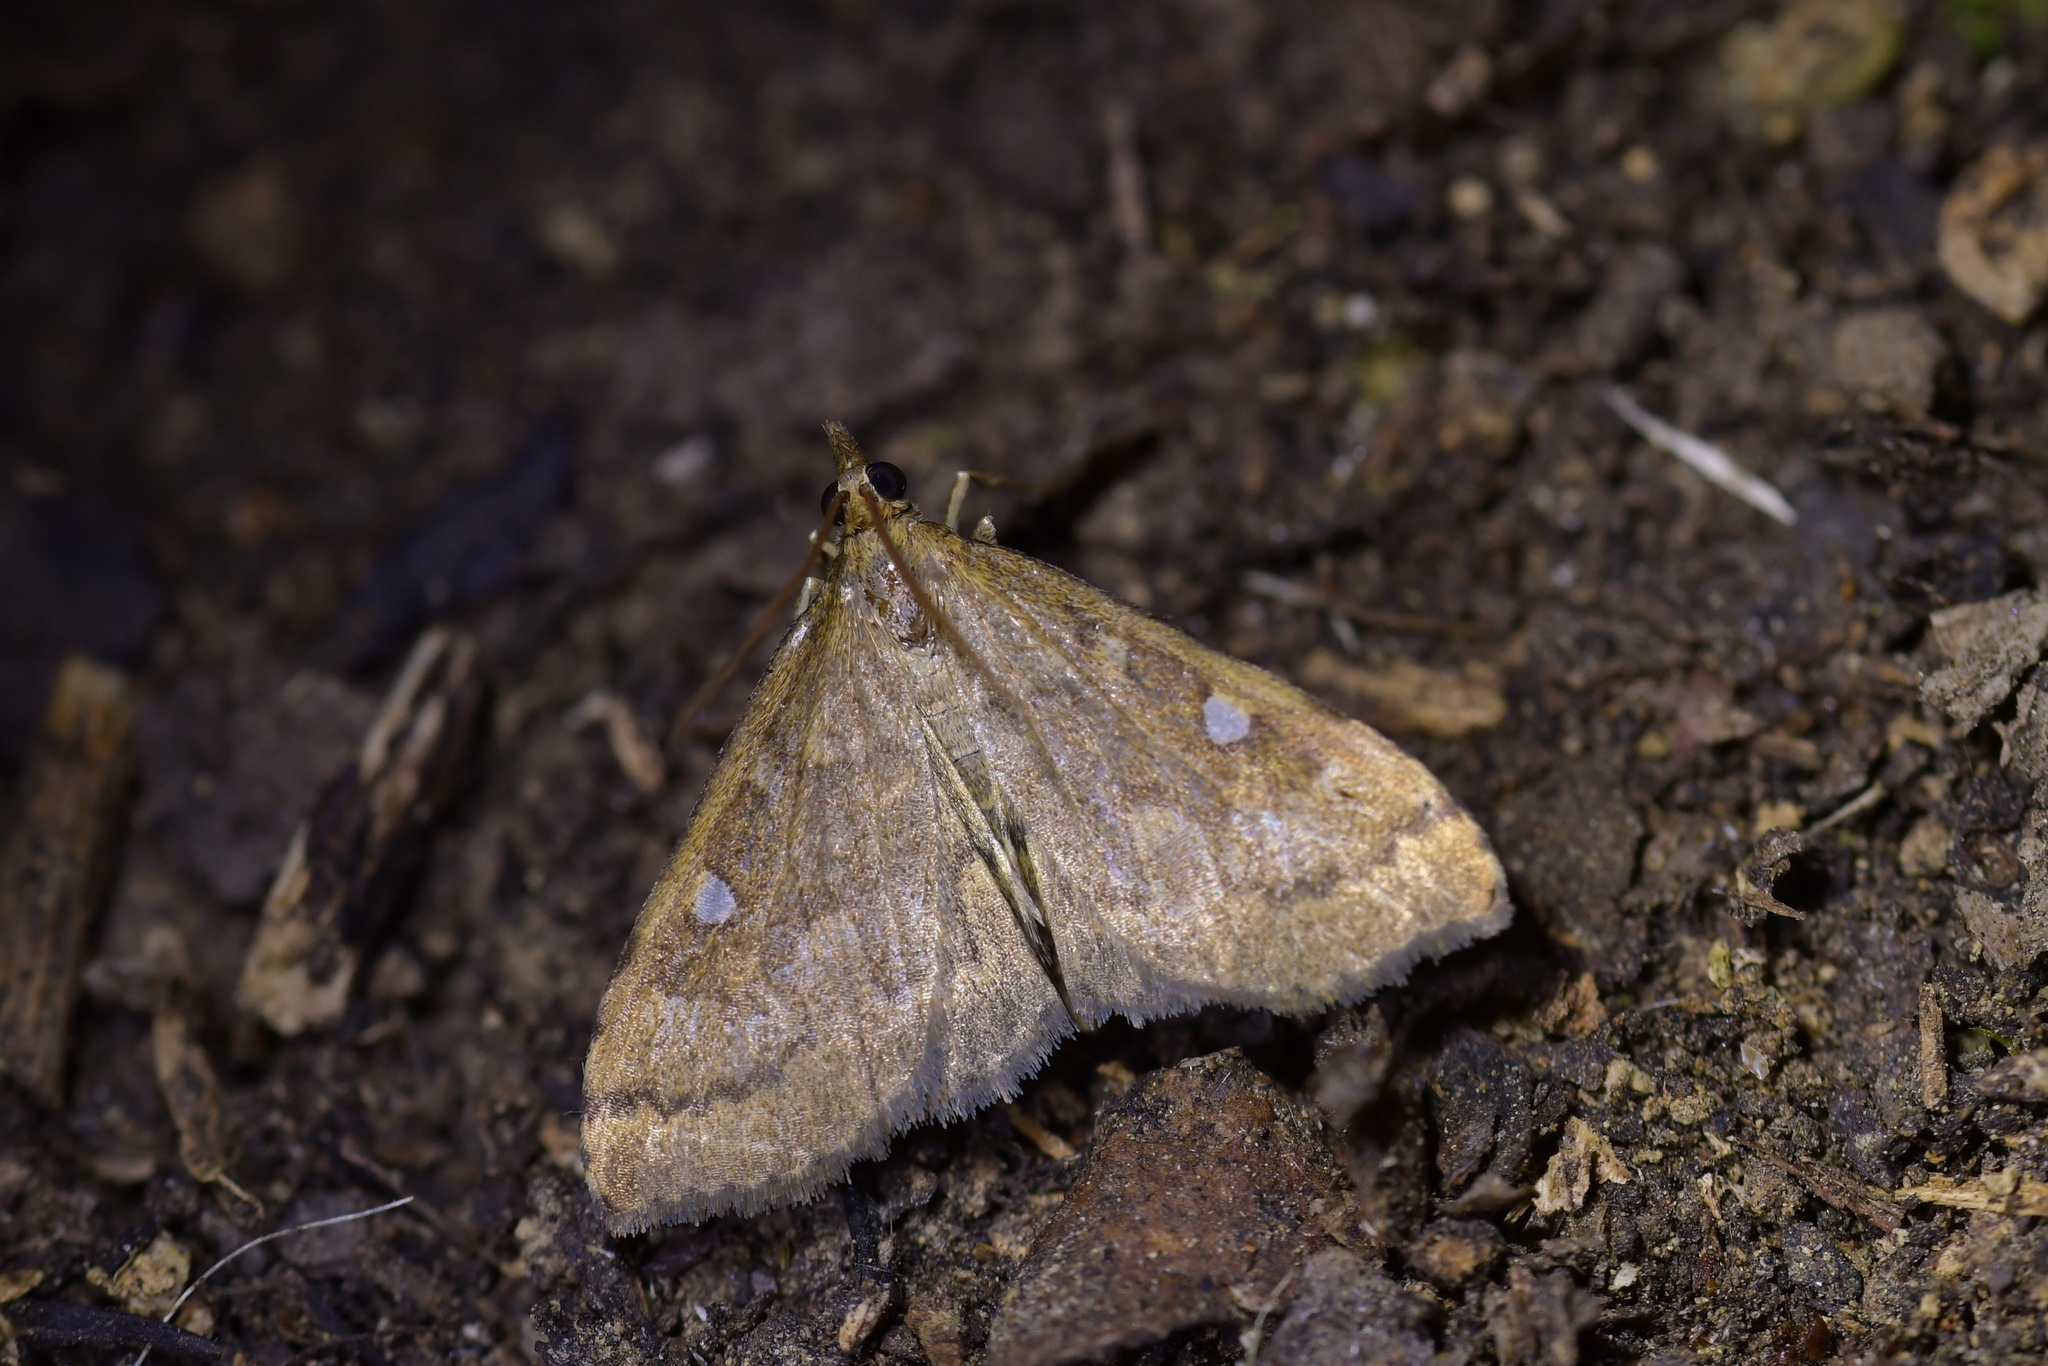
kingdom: Animalia
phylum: Arthropoda
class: Insecta
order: Lepidoptera
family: Crambidae
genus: Udea
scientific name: Udea marmarina
